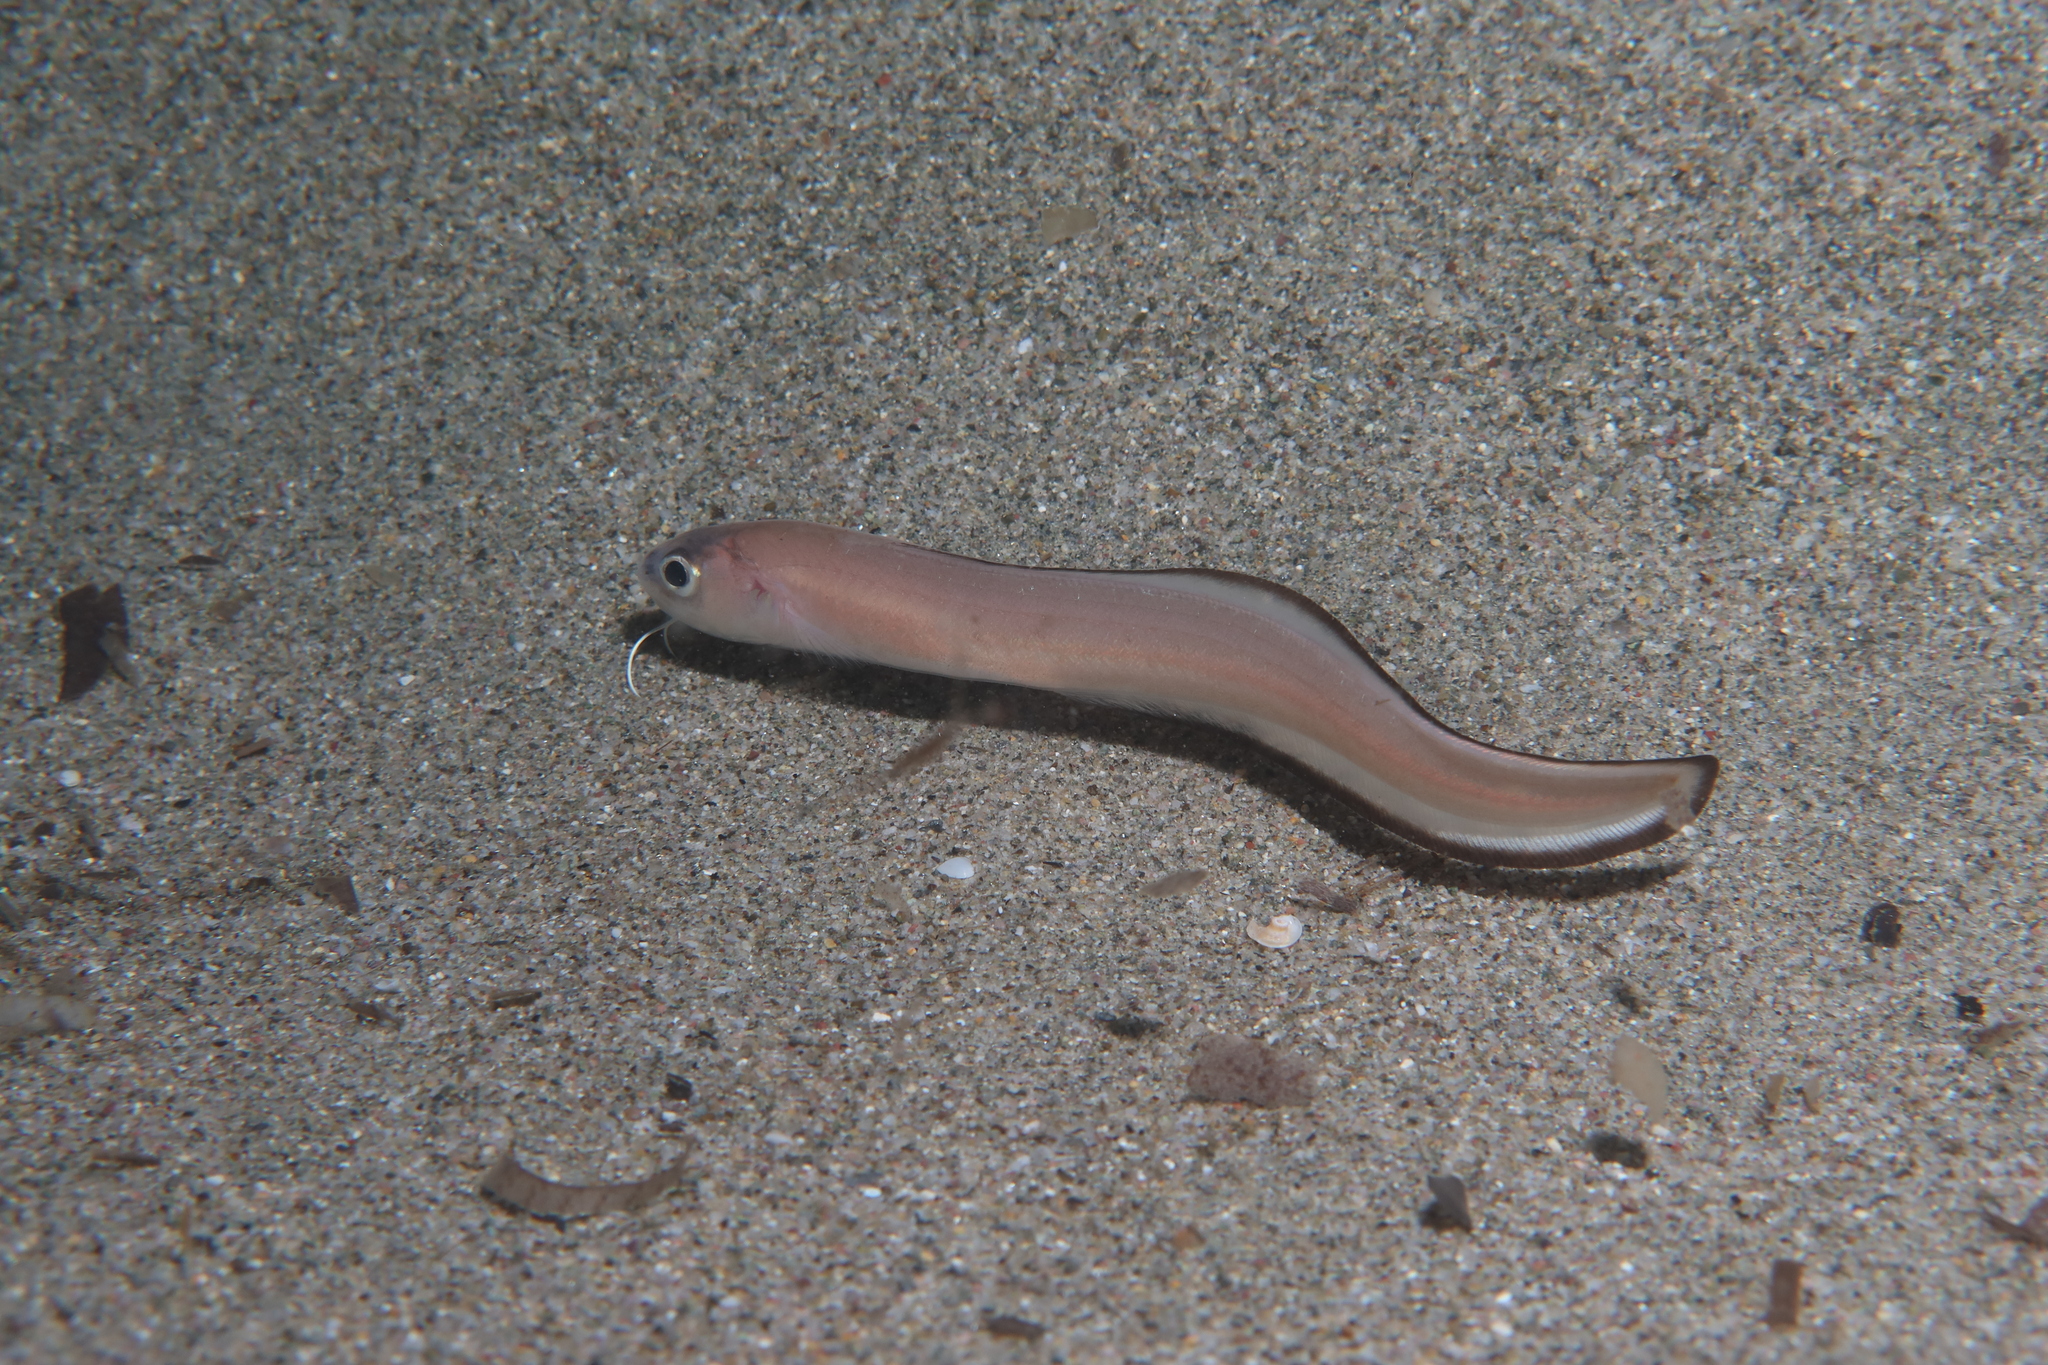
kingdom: Animalia
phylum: Chordata
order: Ophidiiformes
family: Ophidiidae
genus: Ophidion
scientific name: Ophidion rochei
